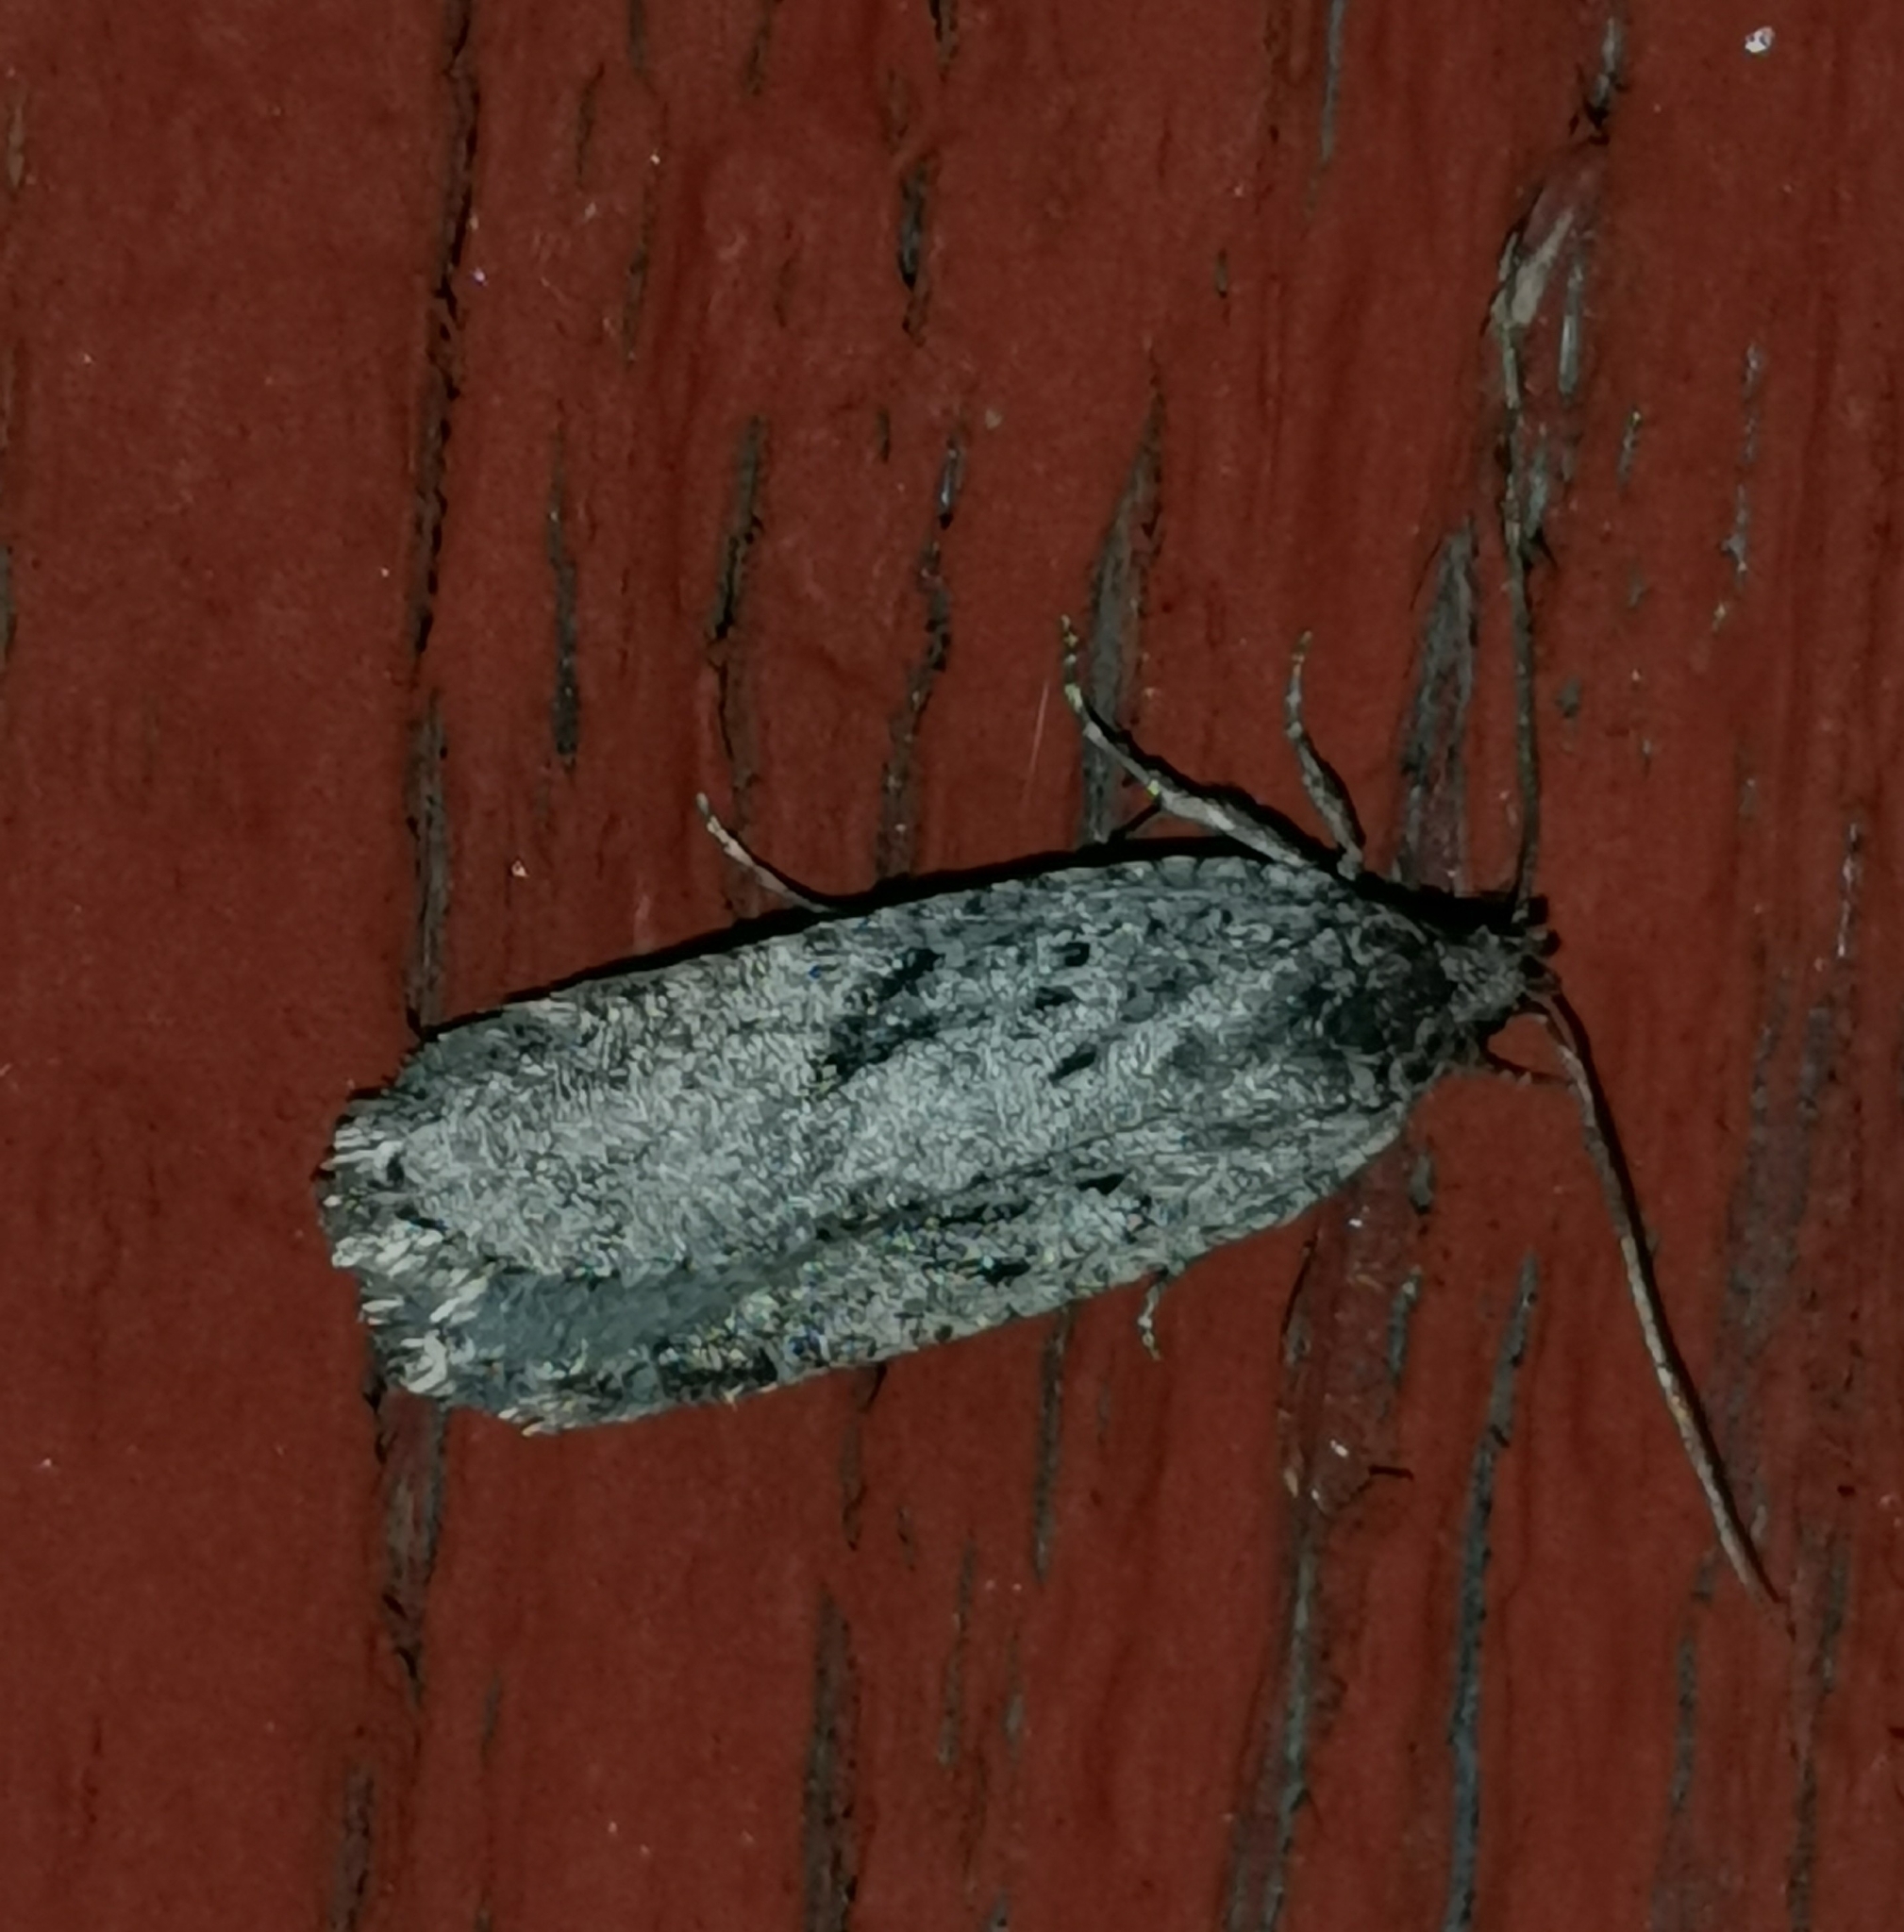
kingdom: Animalia
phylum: Arthropoda
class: Insecta
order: Lepidoptera
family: Depressariidae
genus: Exaeretia
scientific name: Exaeretia ciniflonella
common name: Scotch flat-body
